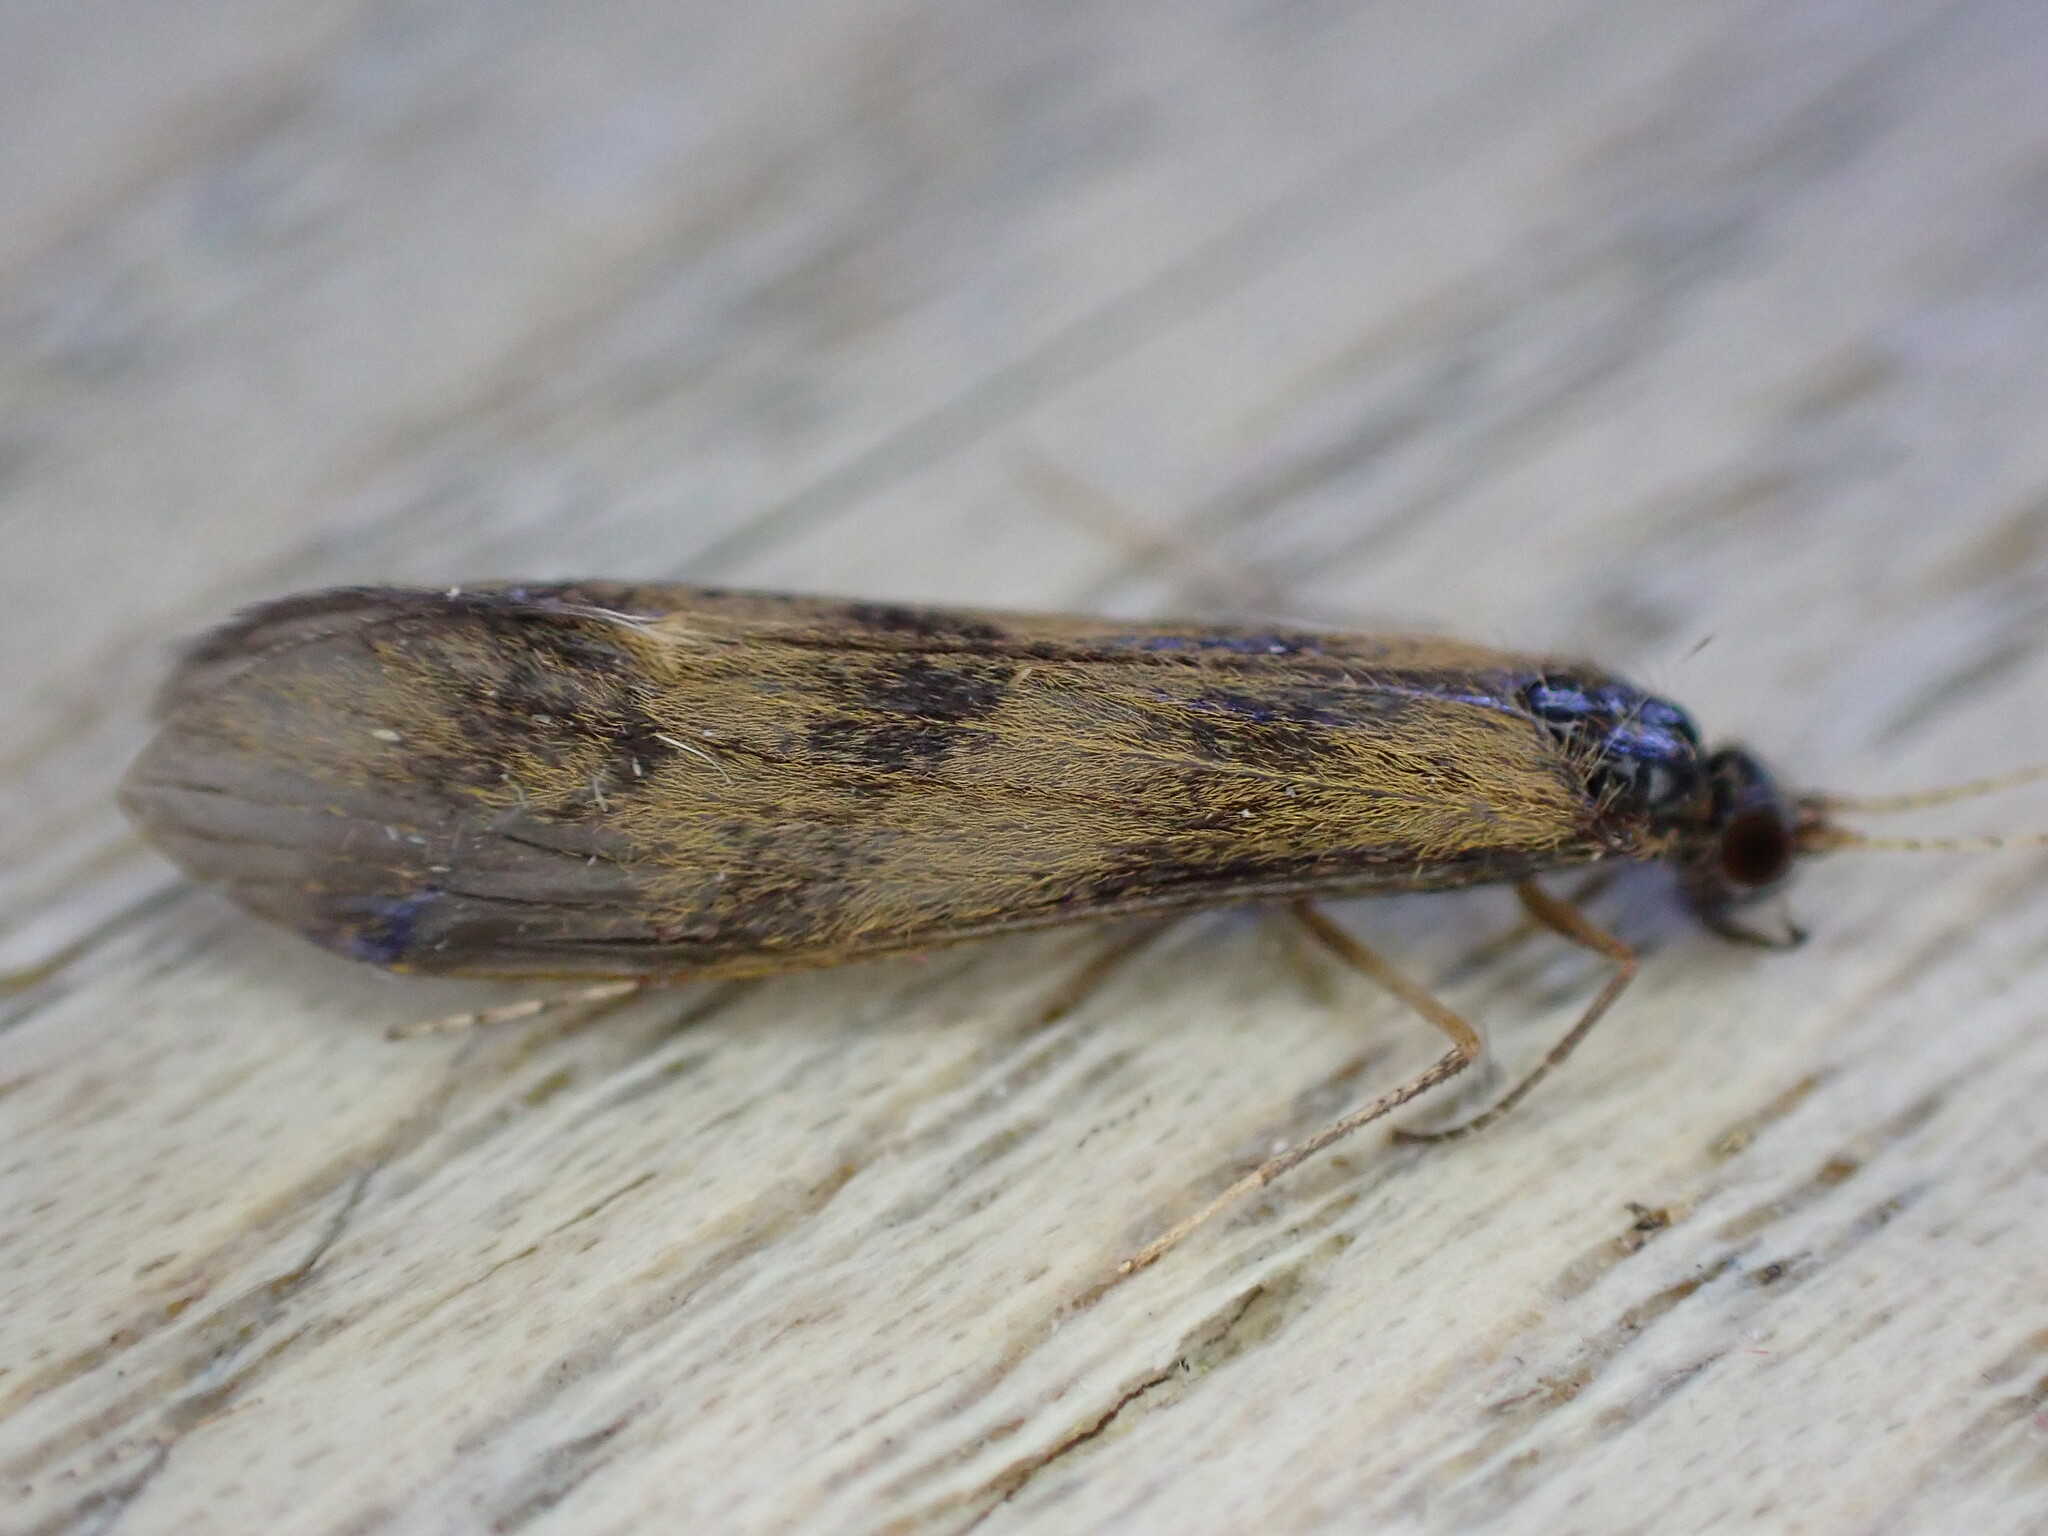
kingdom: Animalia
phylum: Arthropoda
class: Insecta
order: Trichoptera
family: Leptoceridae
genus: Mystacides
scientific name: Mystacides longicornis
